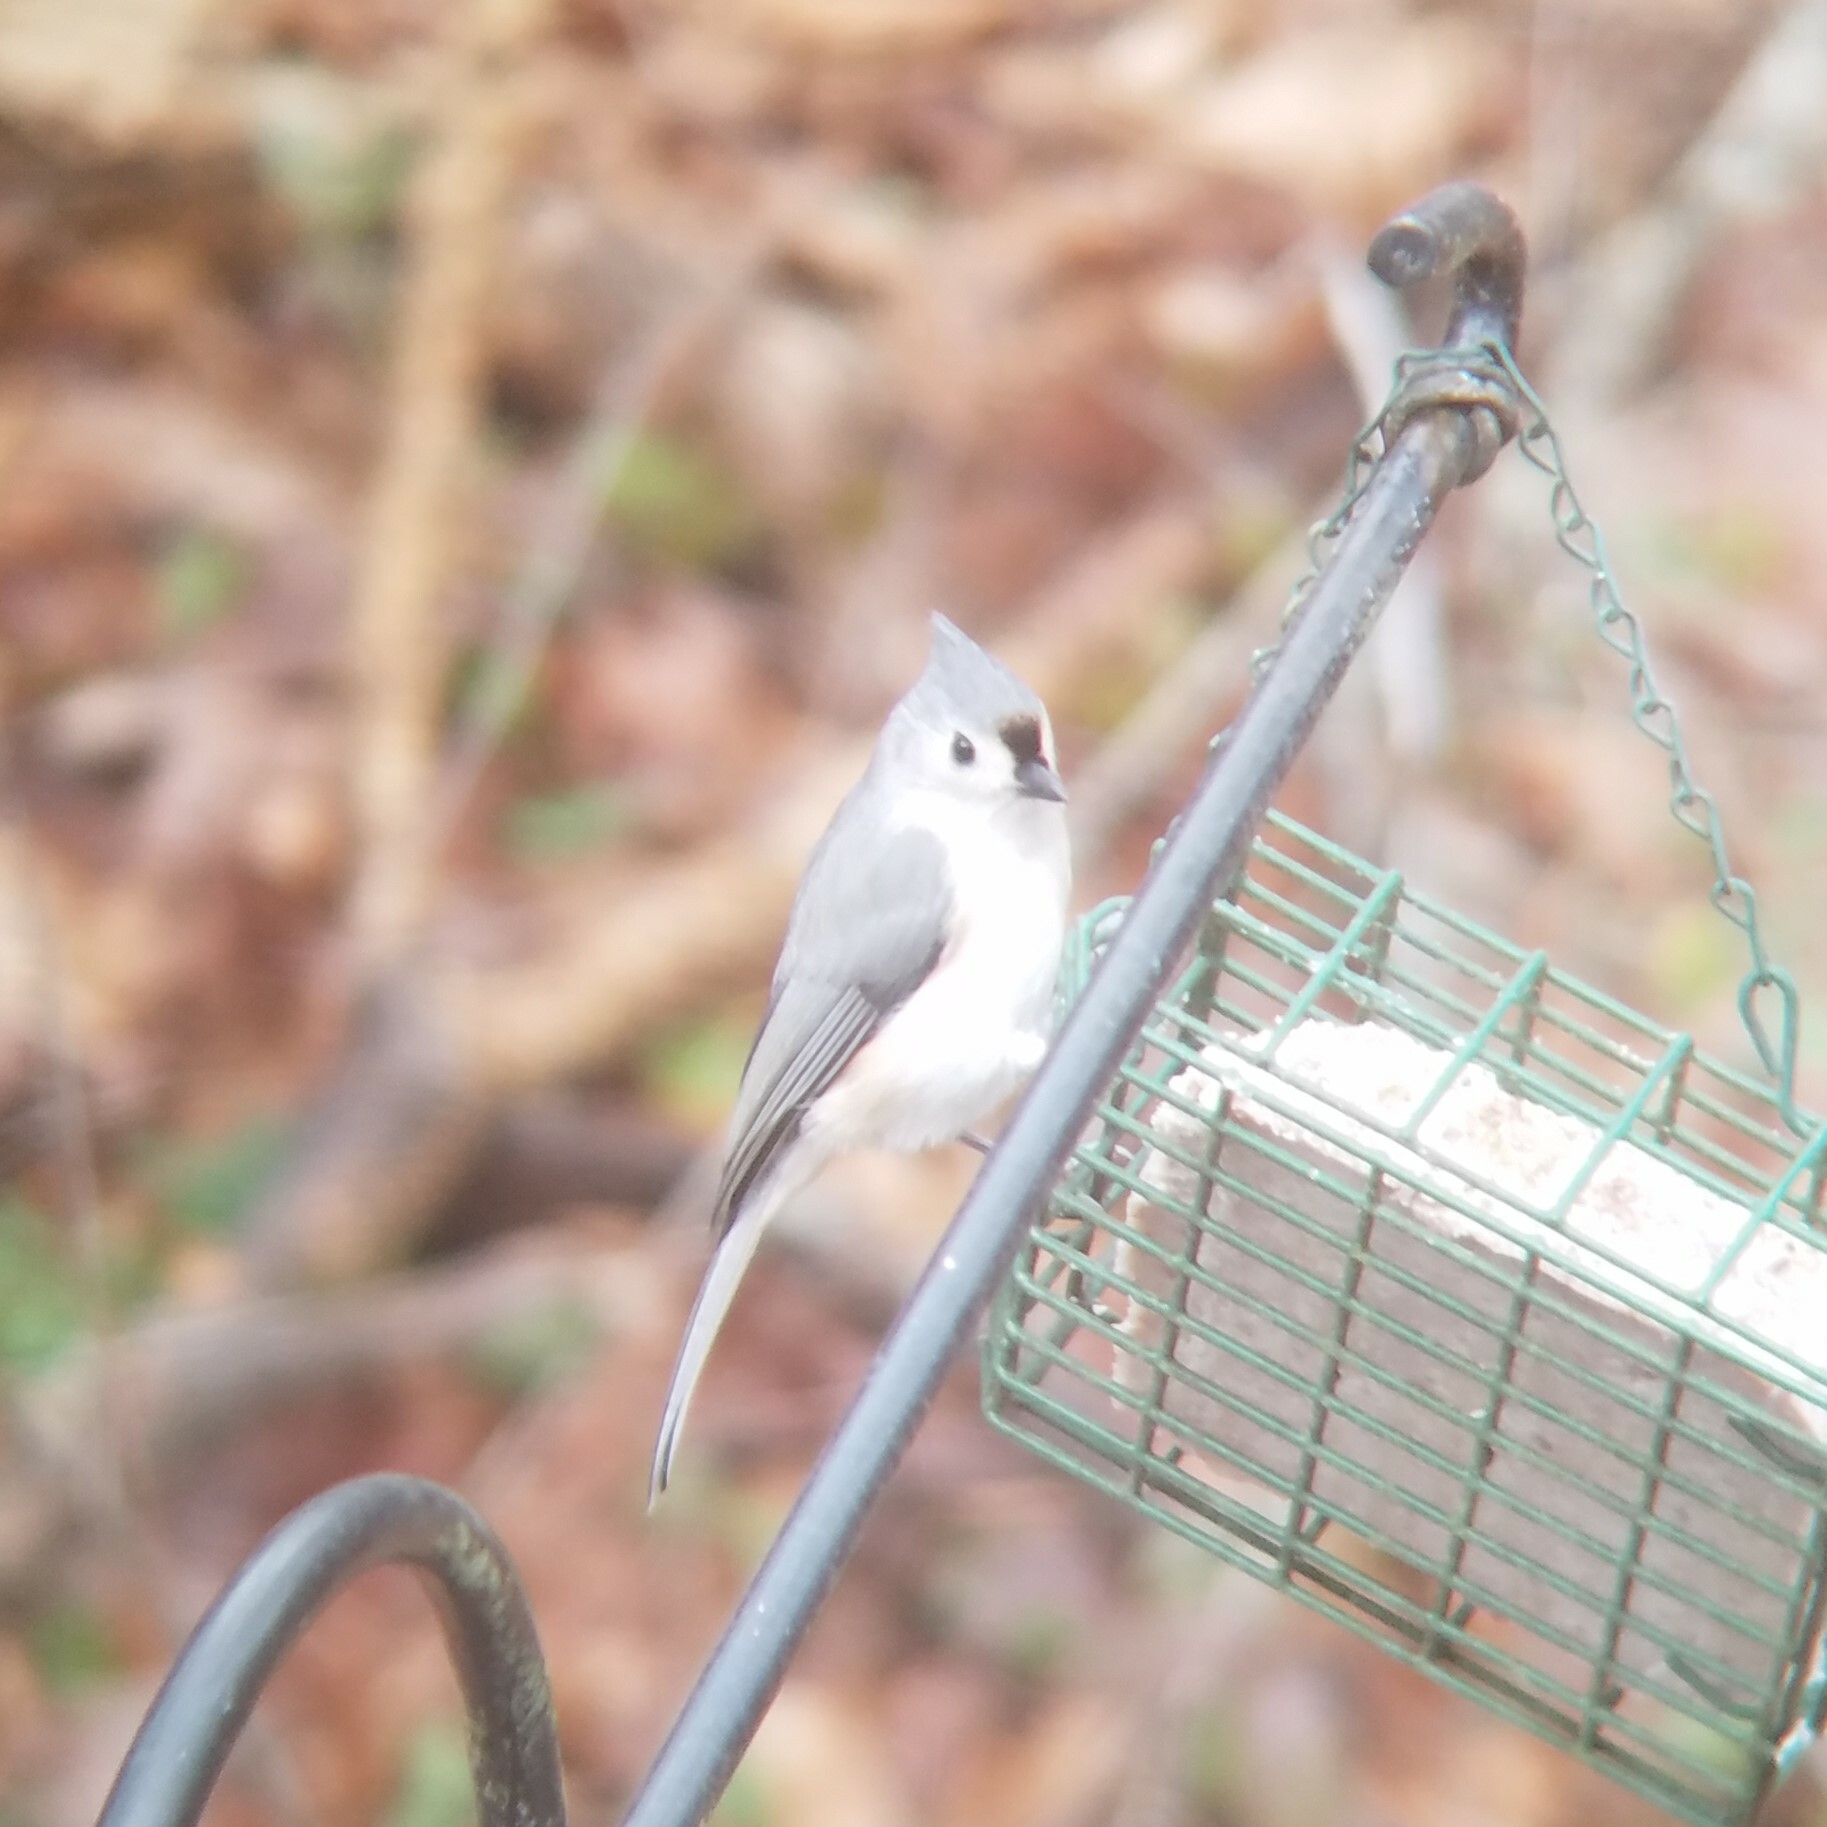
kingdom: Animalia
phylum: Chordata
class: Aves
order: Passeriformes
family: Paridae
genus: Baeolophus
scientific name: Baeolophus bicolor
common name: Tufted titmouse
